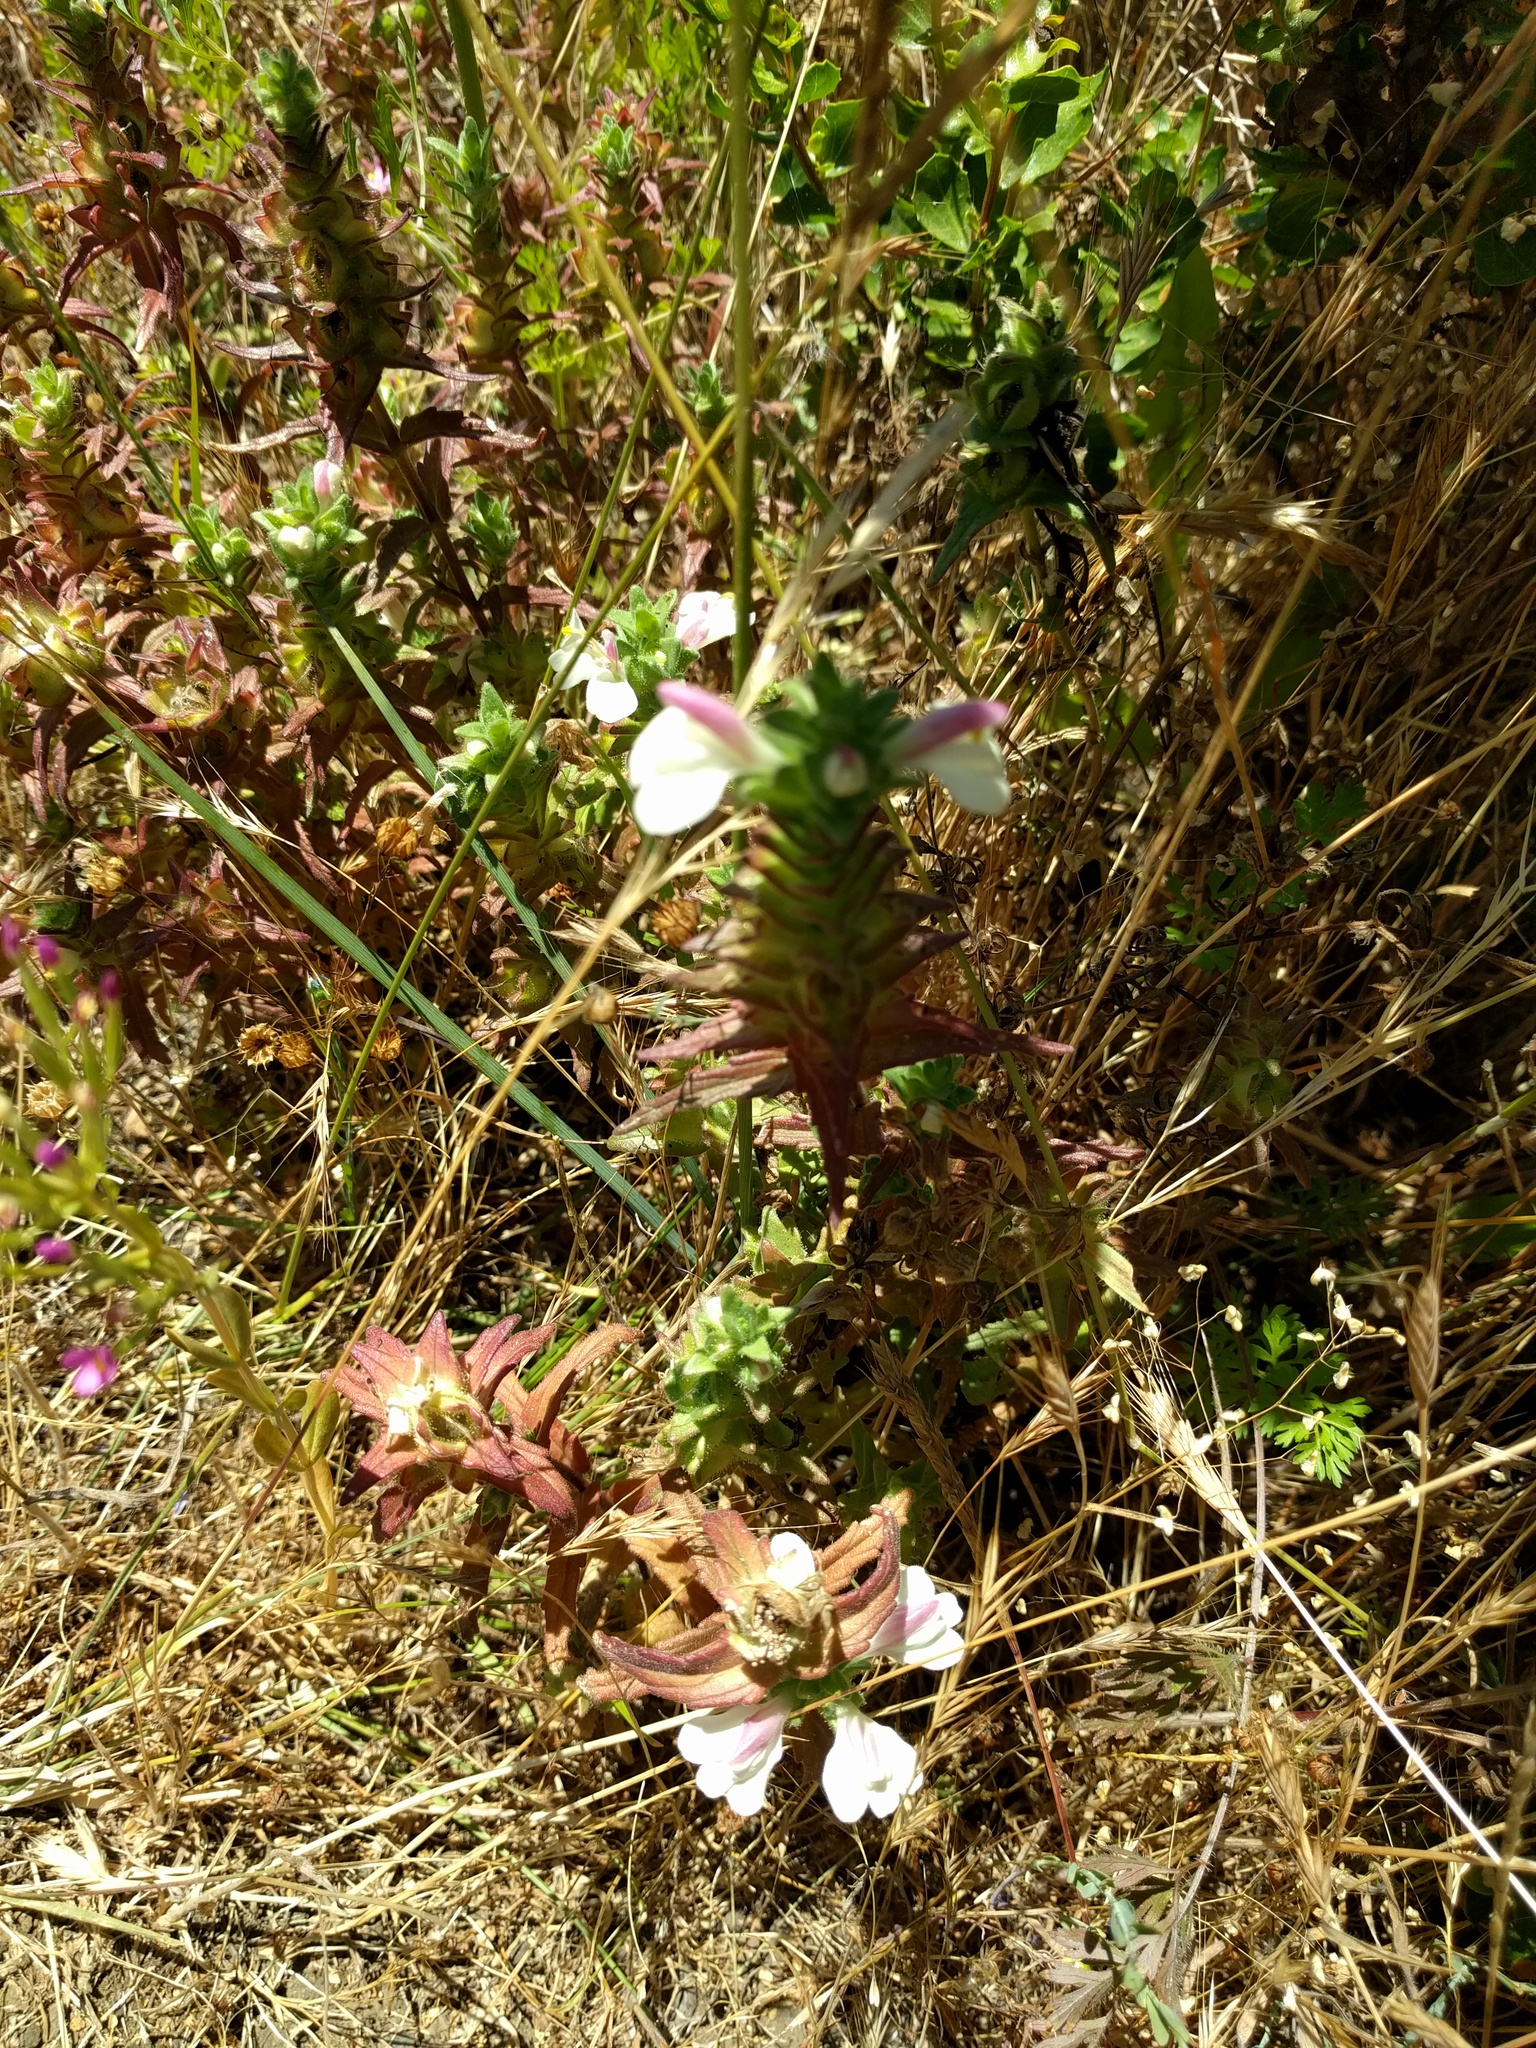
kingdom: Plantae
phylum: Tracheophyta
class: Magnoliopsida
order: Lamiales
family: Orobanchaceae
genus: Bellardia
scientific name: Bellardia trixago
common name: Mediterranean lineseed
